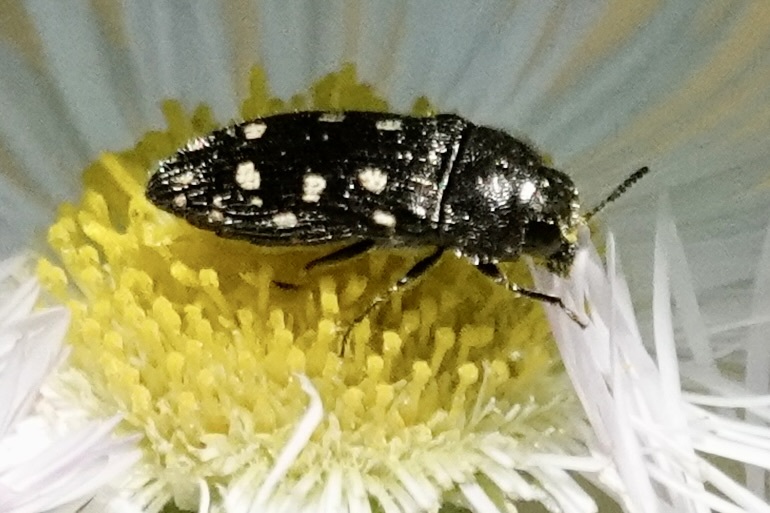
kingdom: Animalia
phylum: Arthropoda
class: Insecta
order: Coleoptera
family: Buprestidae
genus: Acmaeodera
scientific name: Acmaeodera tubulus
